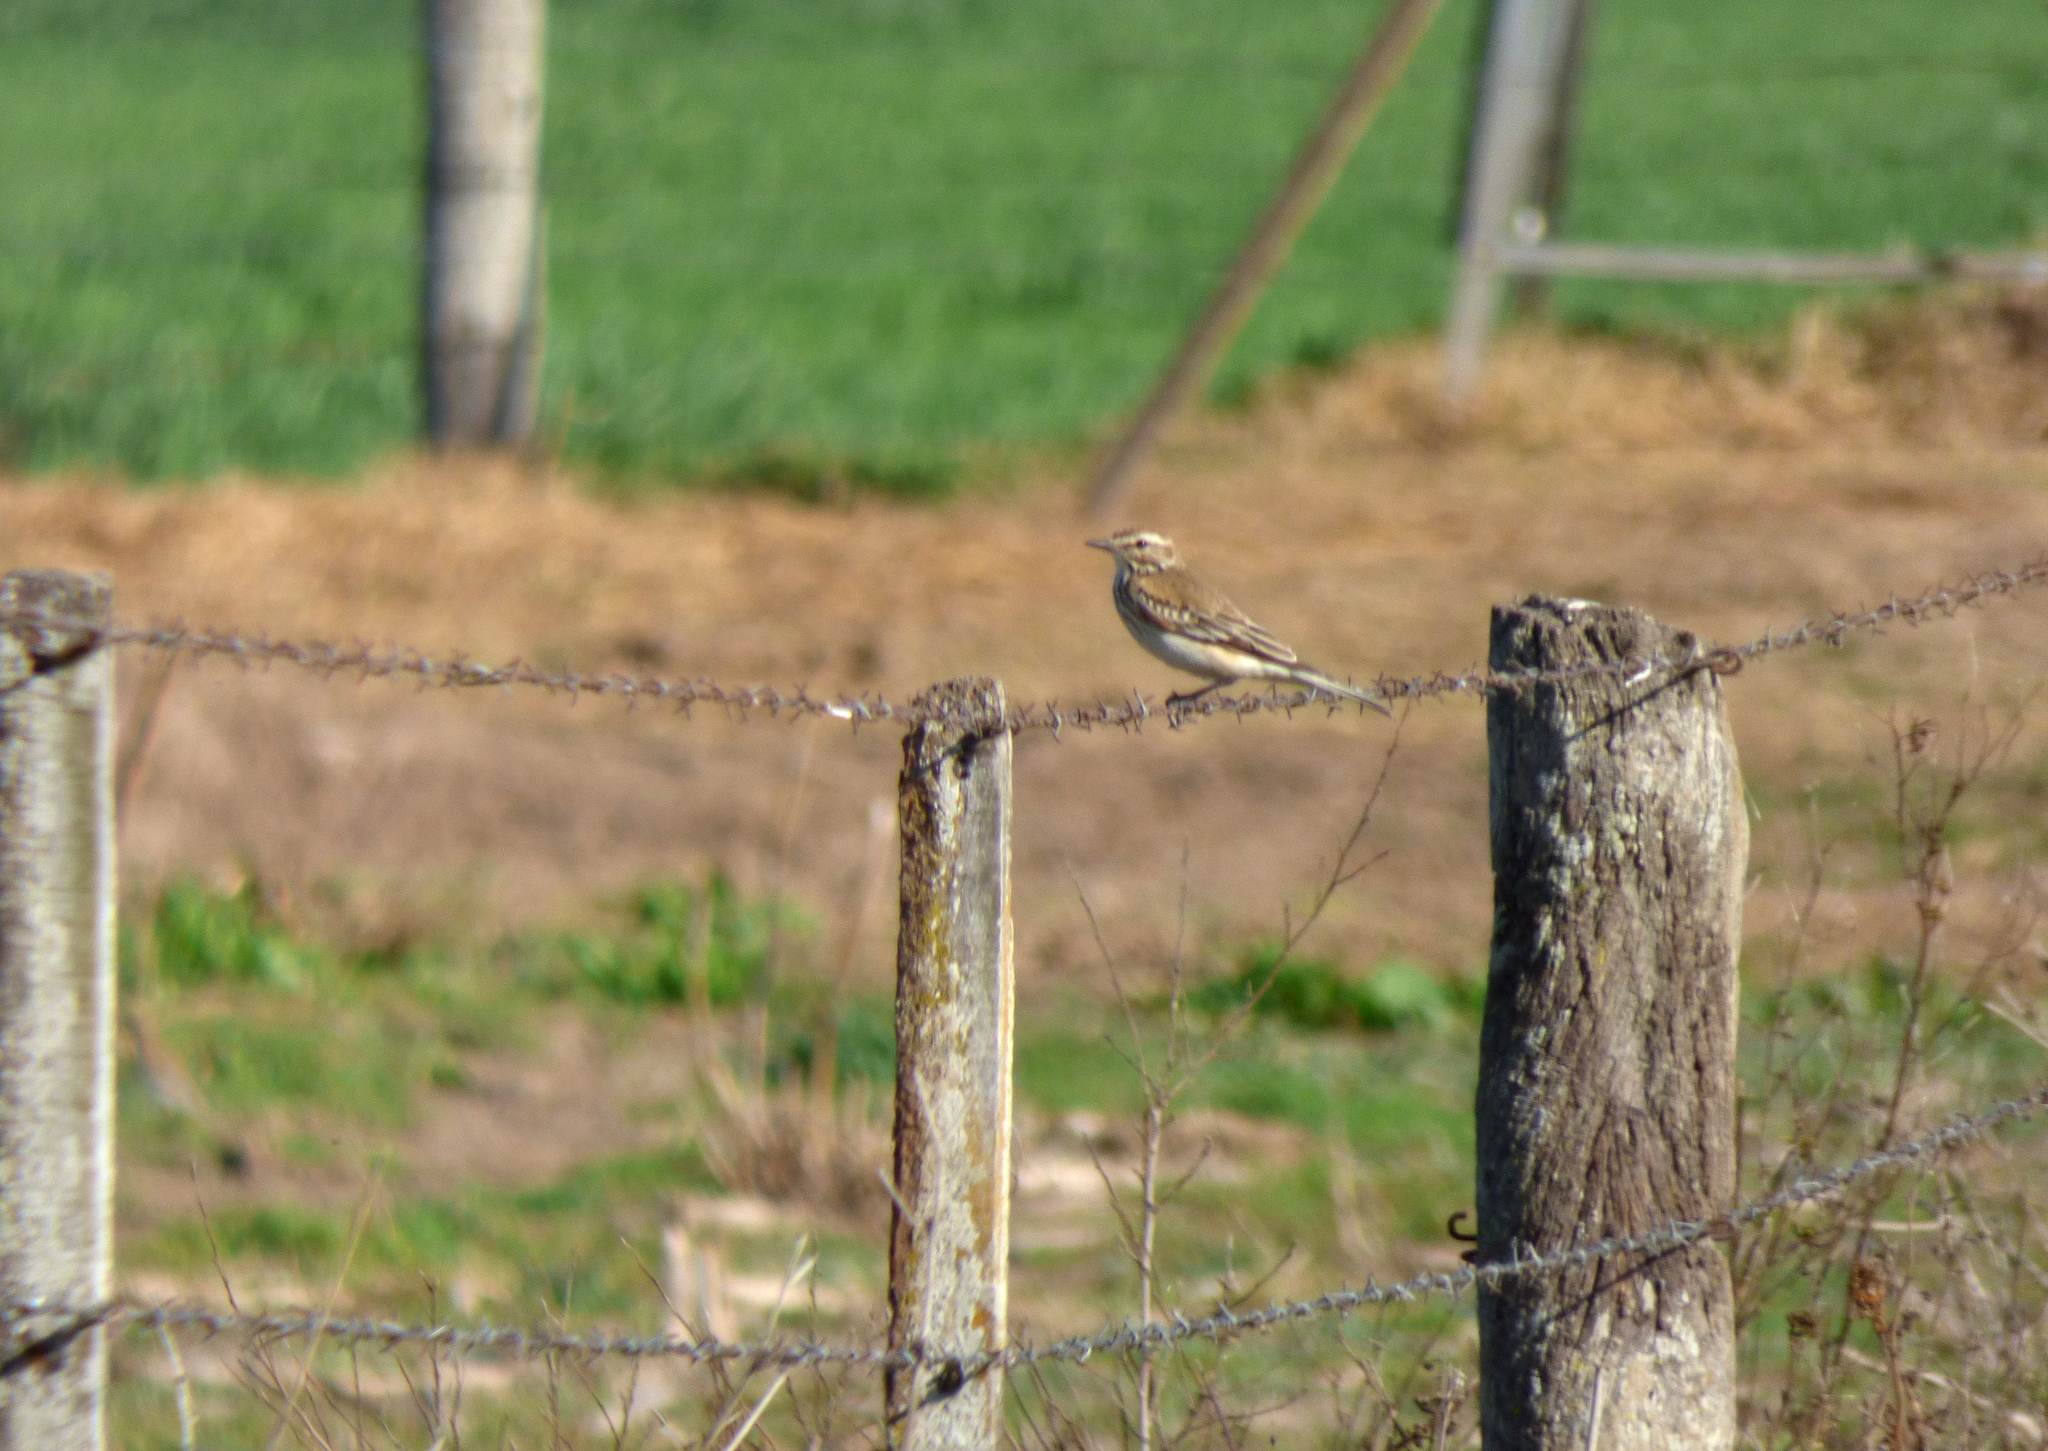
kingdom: Animalia
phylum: Chordata
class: Aves
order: Passeriformes
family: Tyrannidae
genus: Xolmis
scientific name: Xolmis rubetra
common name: Rusty-backed monjita
